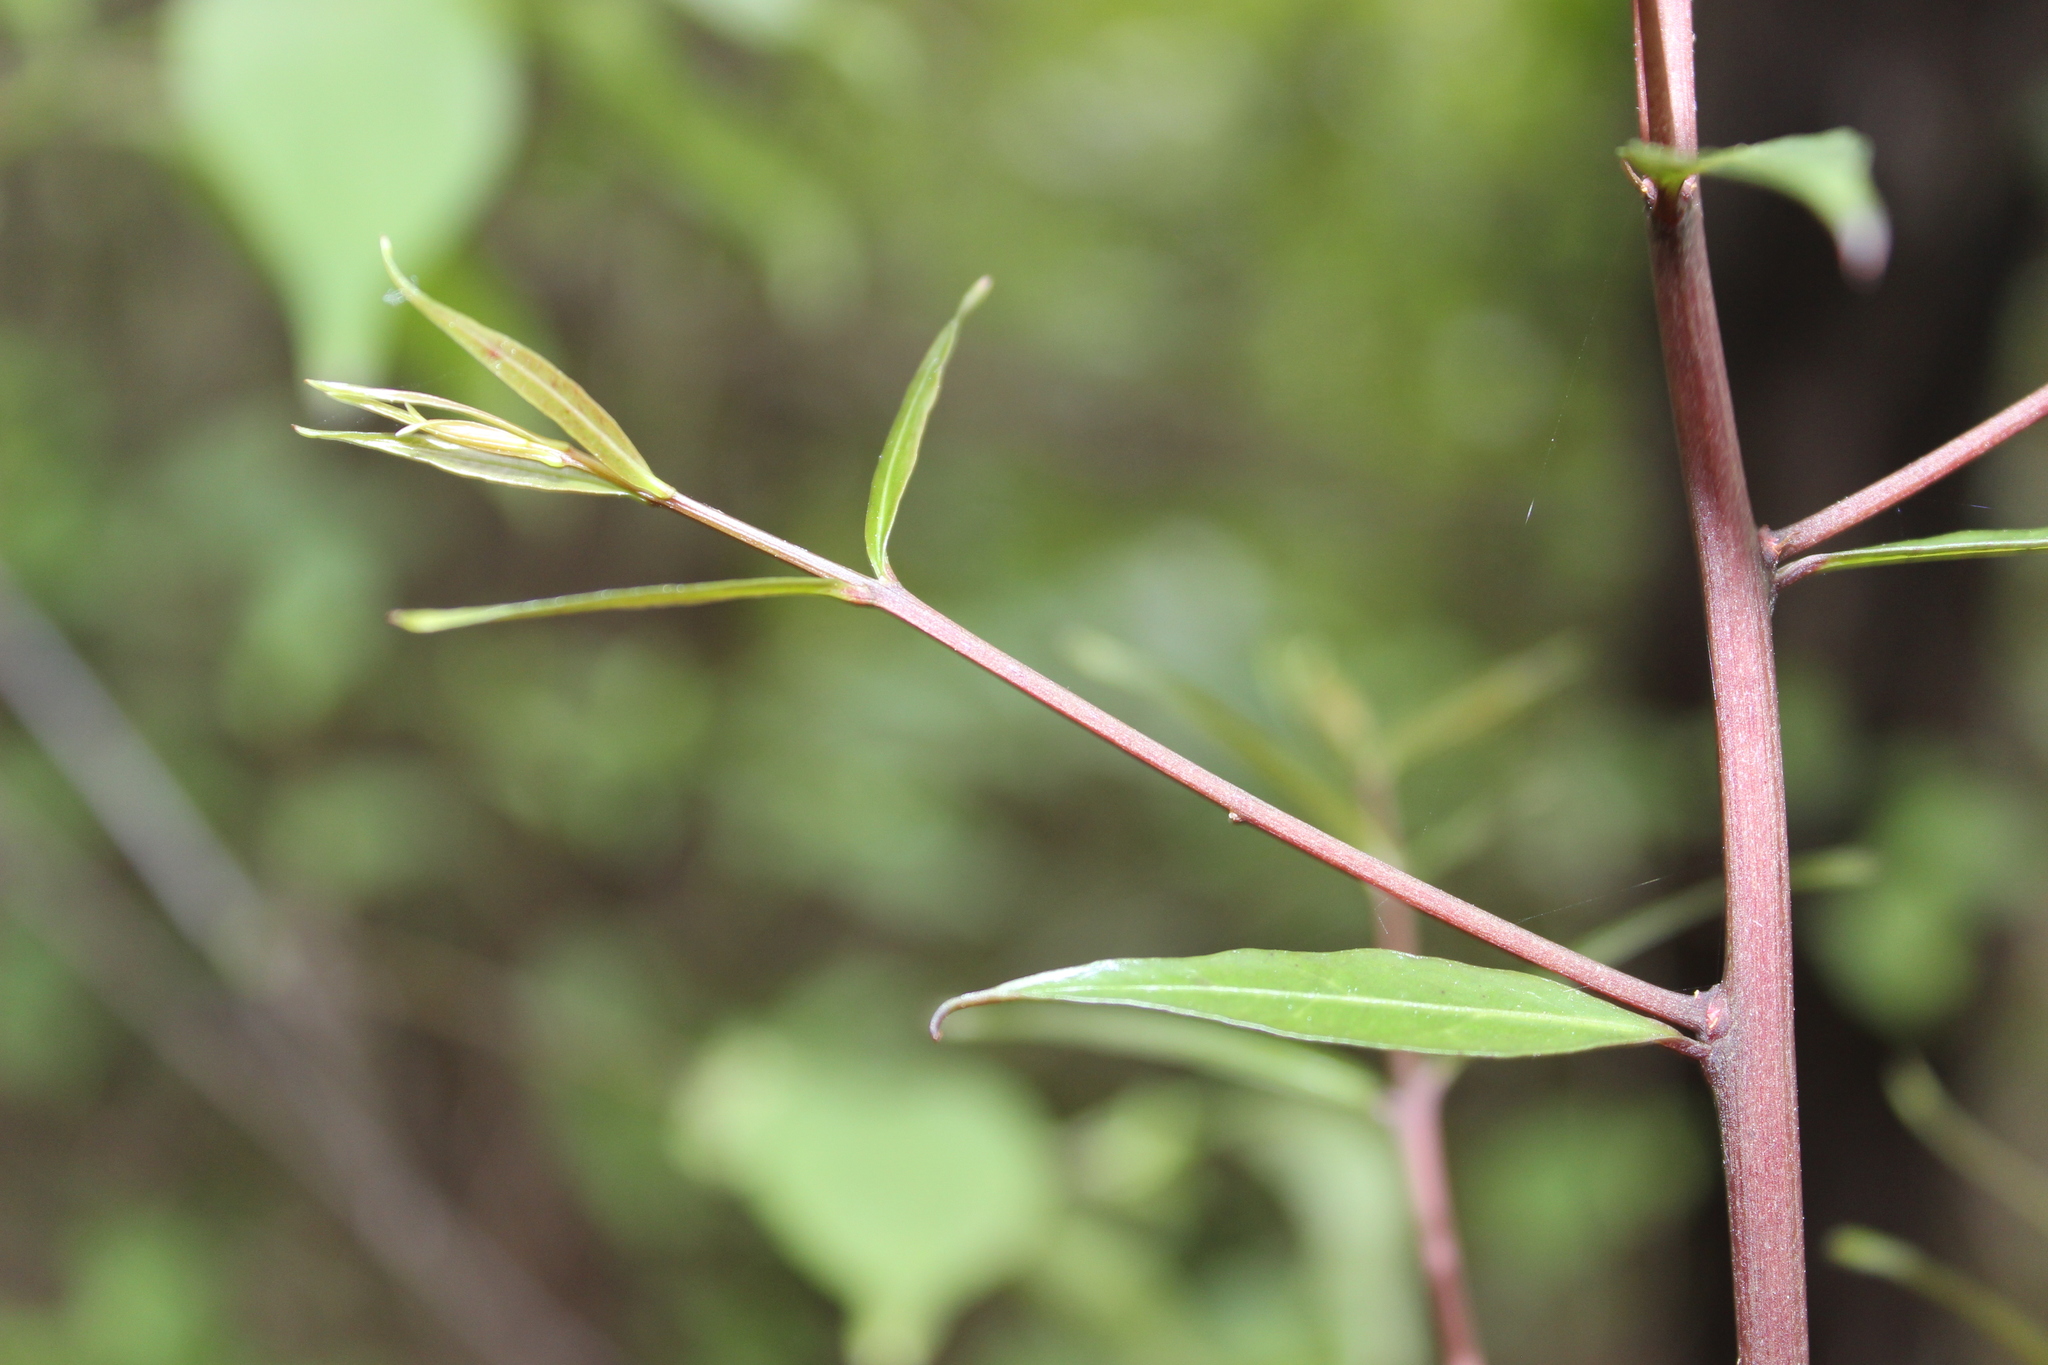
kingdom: Plantae
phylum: Tracheophyta
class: Magnoliopsida
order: Santalales
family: Nanodeaceae
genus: Mida
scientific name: Mida salicifolia
